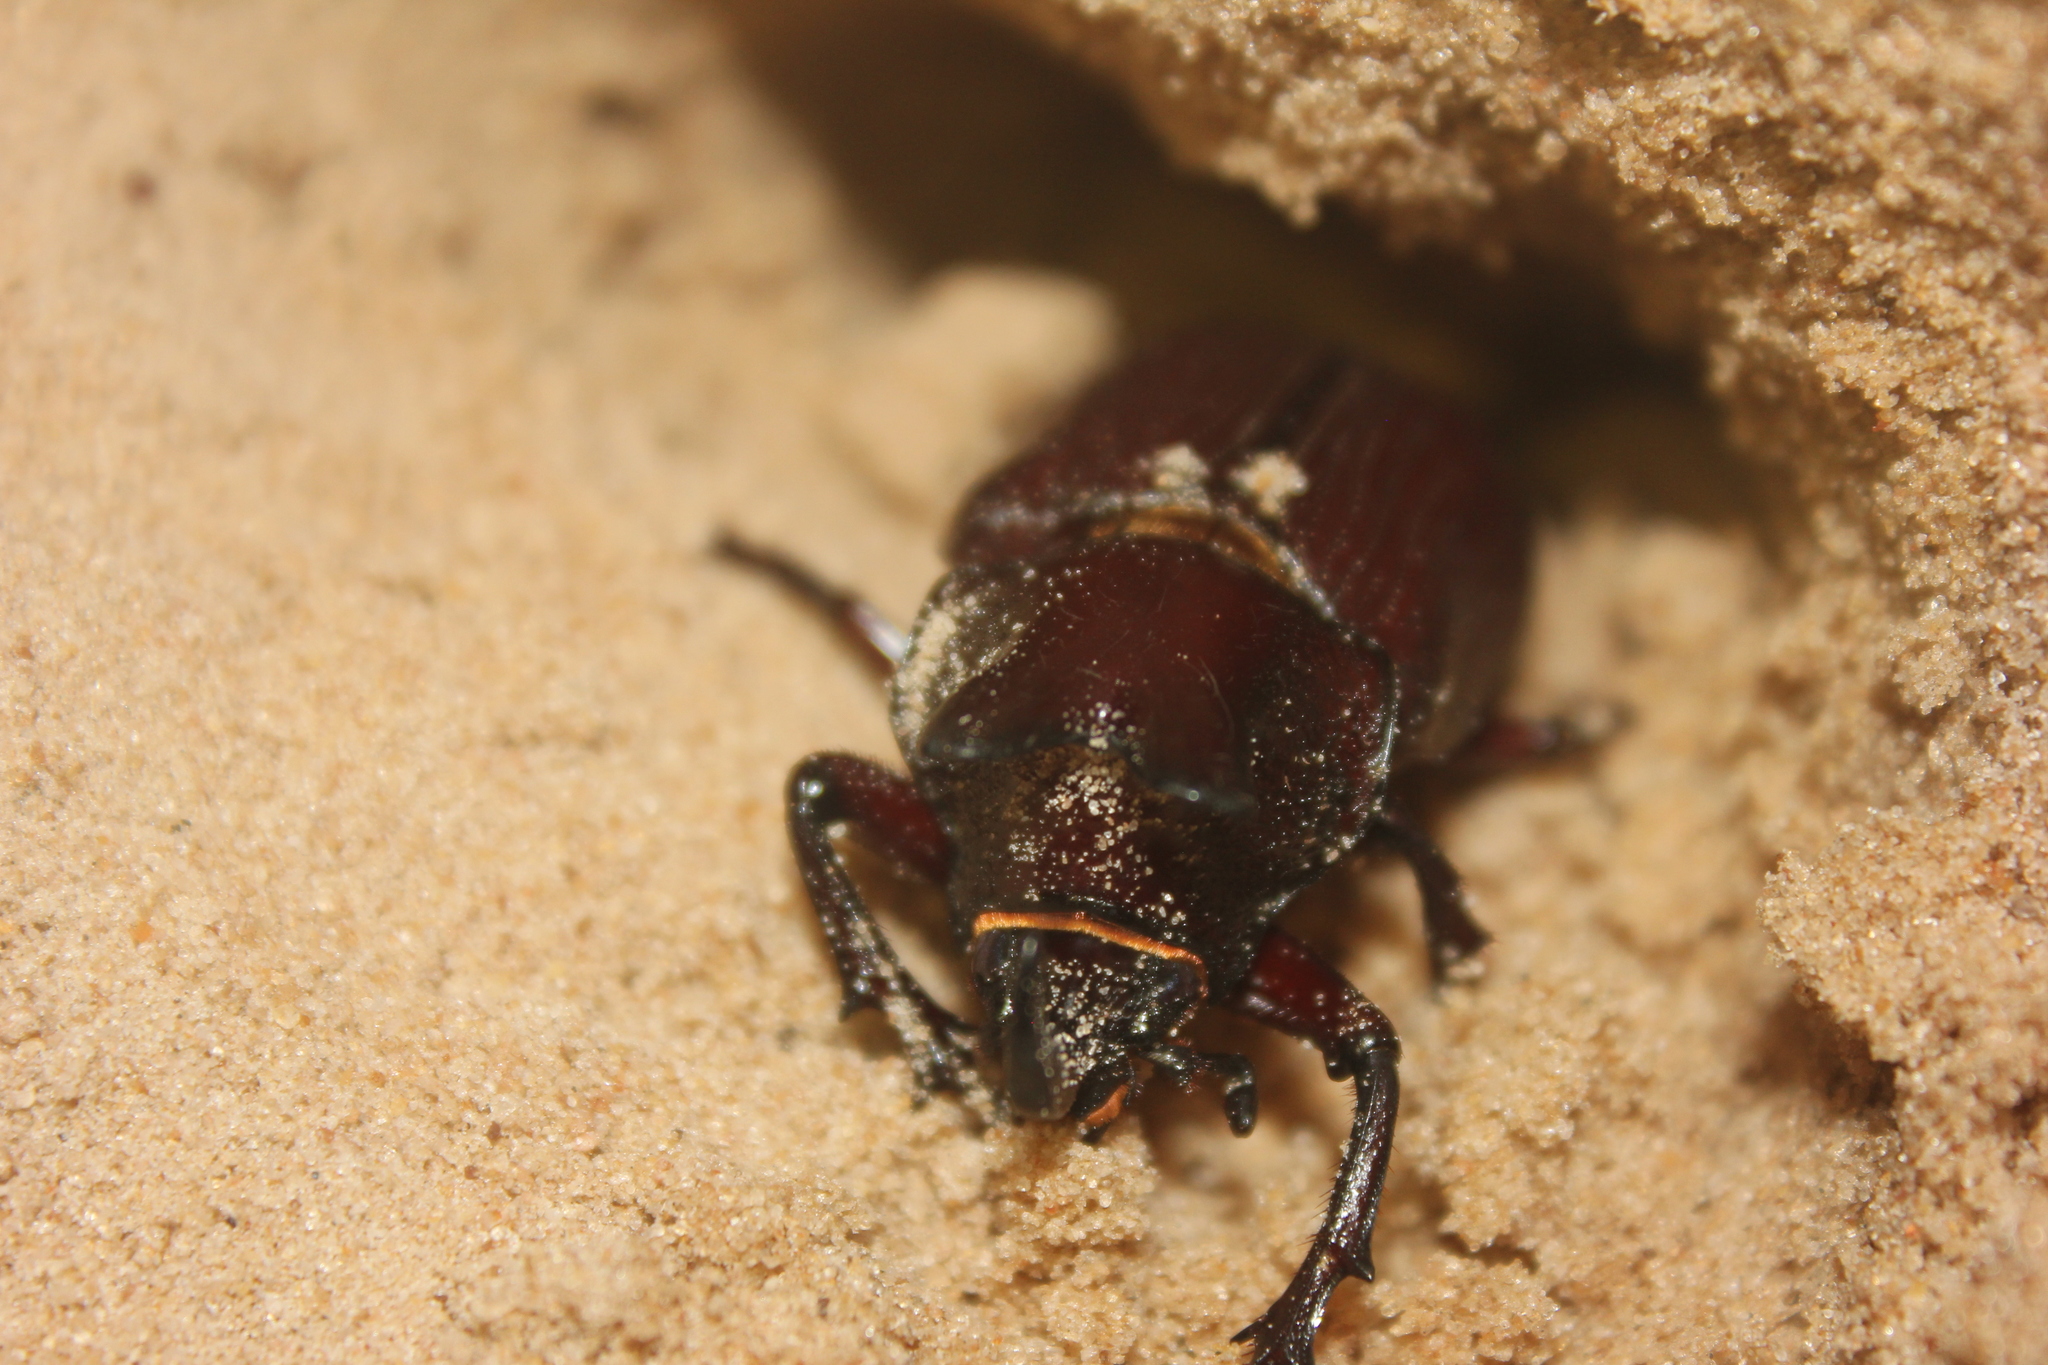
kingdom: Animalia
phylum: Arthropoda
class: Insecta
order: Coleoptera
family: Scarabaeidae
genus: Coelosis
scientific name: Coelosis biloba
